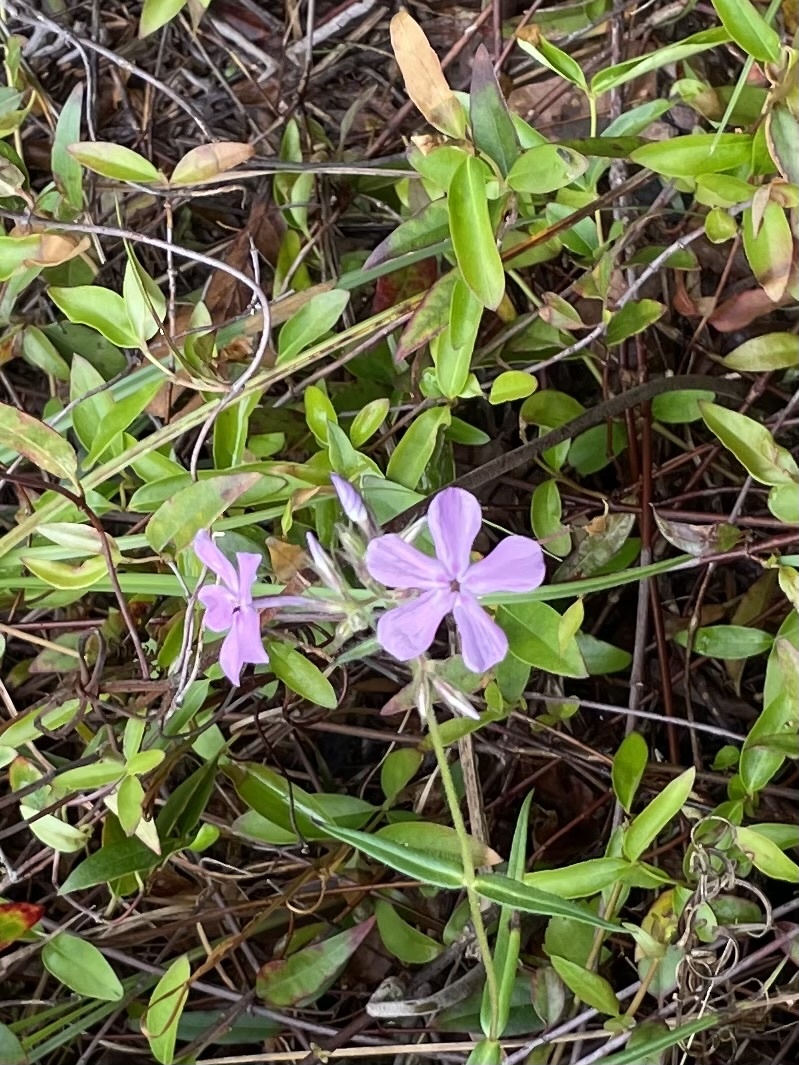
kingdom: Plantae
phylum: Tracheophyta
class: Magnoliopsida
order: Ericales
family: Polemoniaceae
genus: Phlox
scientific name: Phlox pilosa
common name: Prairie phlox
